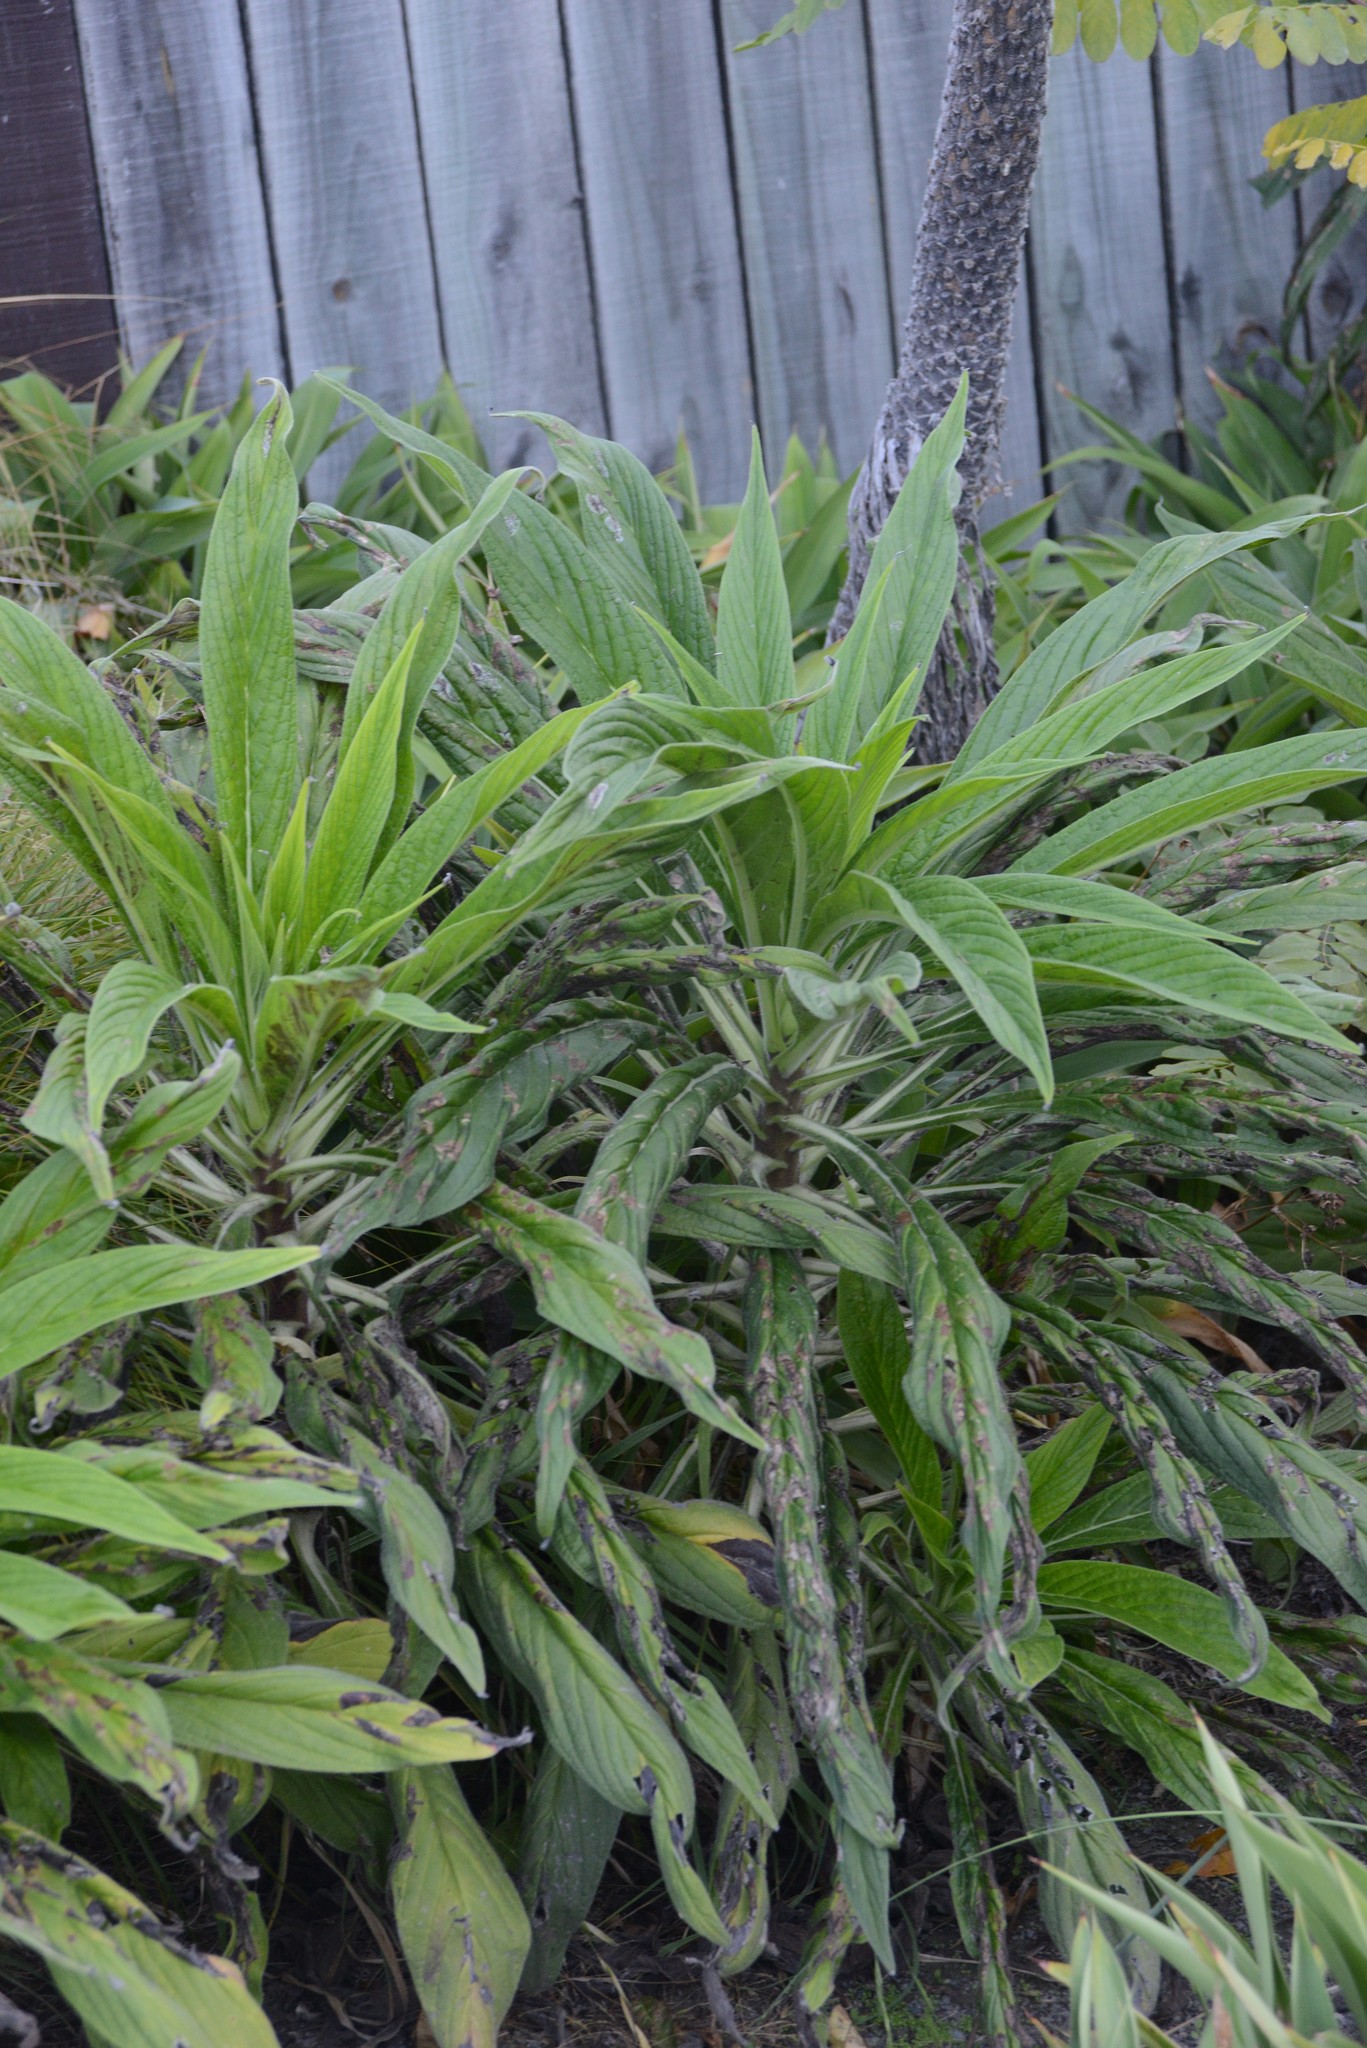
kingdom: Animalia
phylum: Arthropoda
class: Insecta
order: Lepidoptera
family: Gracillariidae
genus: Dialectica
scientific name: Dialectica scalariella
